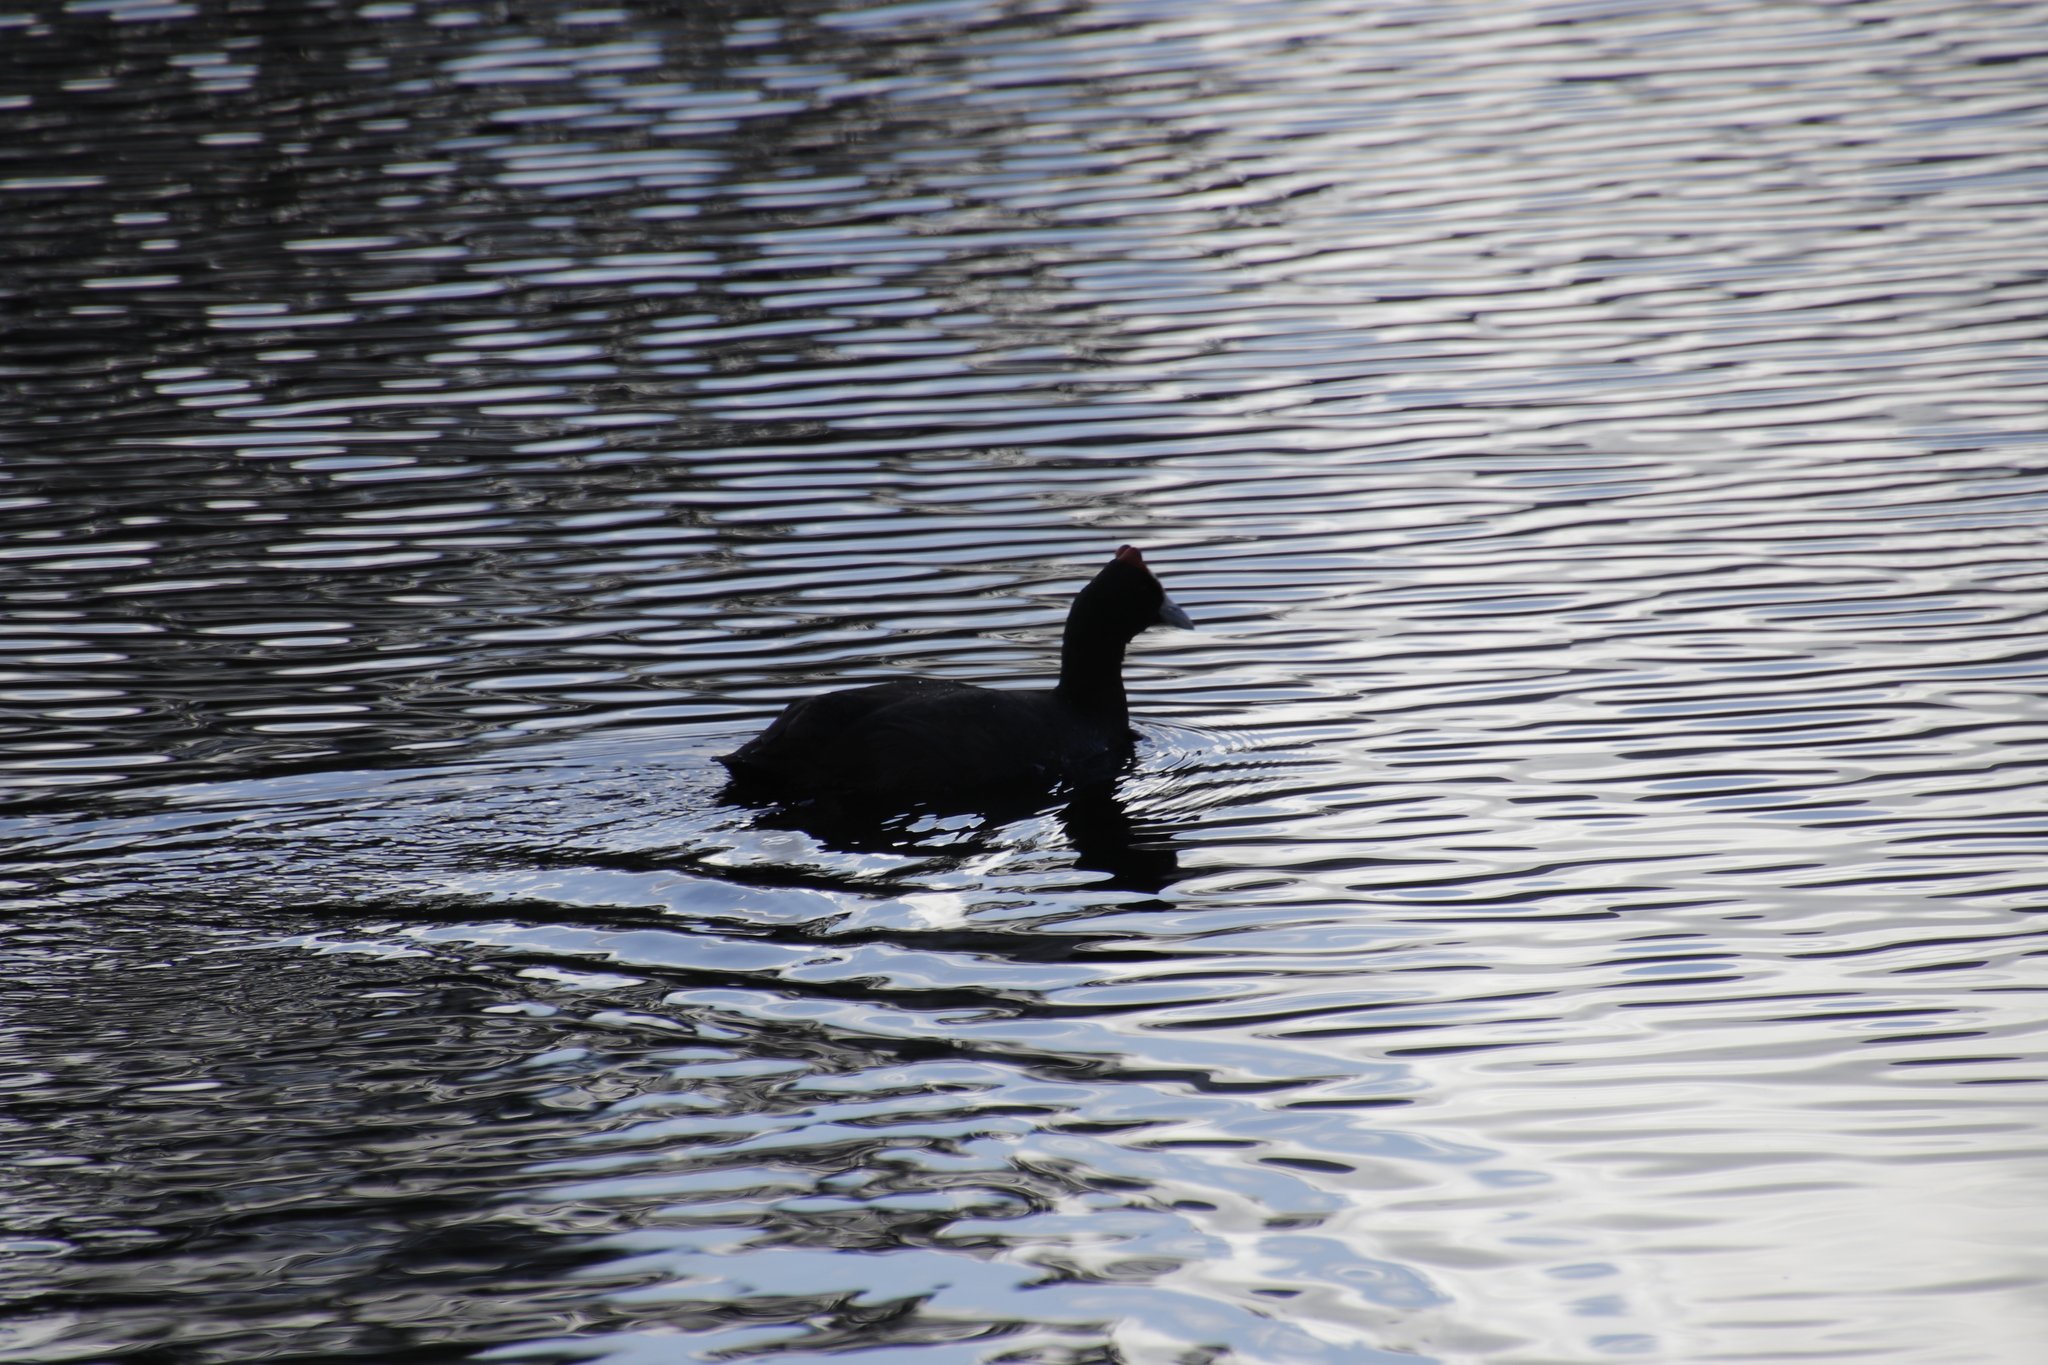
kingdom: Animalia
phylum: Chordata
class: Aves
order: Gruiformes
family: Rallidae
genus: Fulica
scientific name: Fulica cristata
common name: Red-knobbed coot
